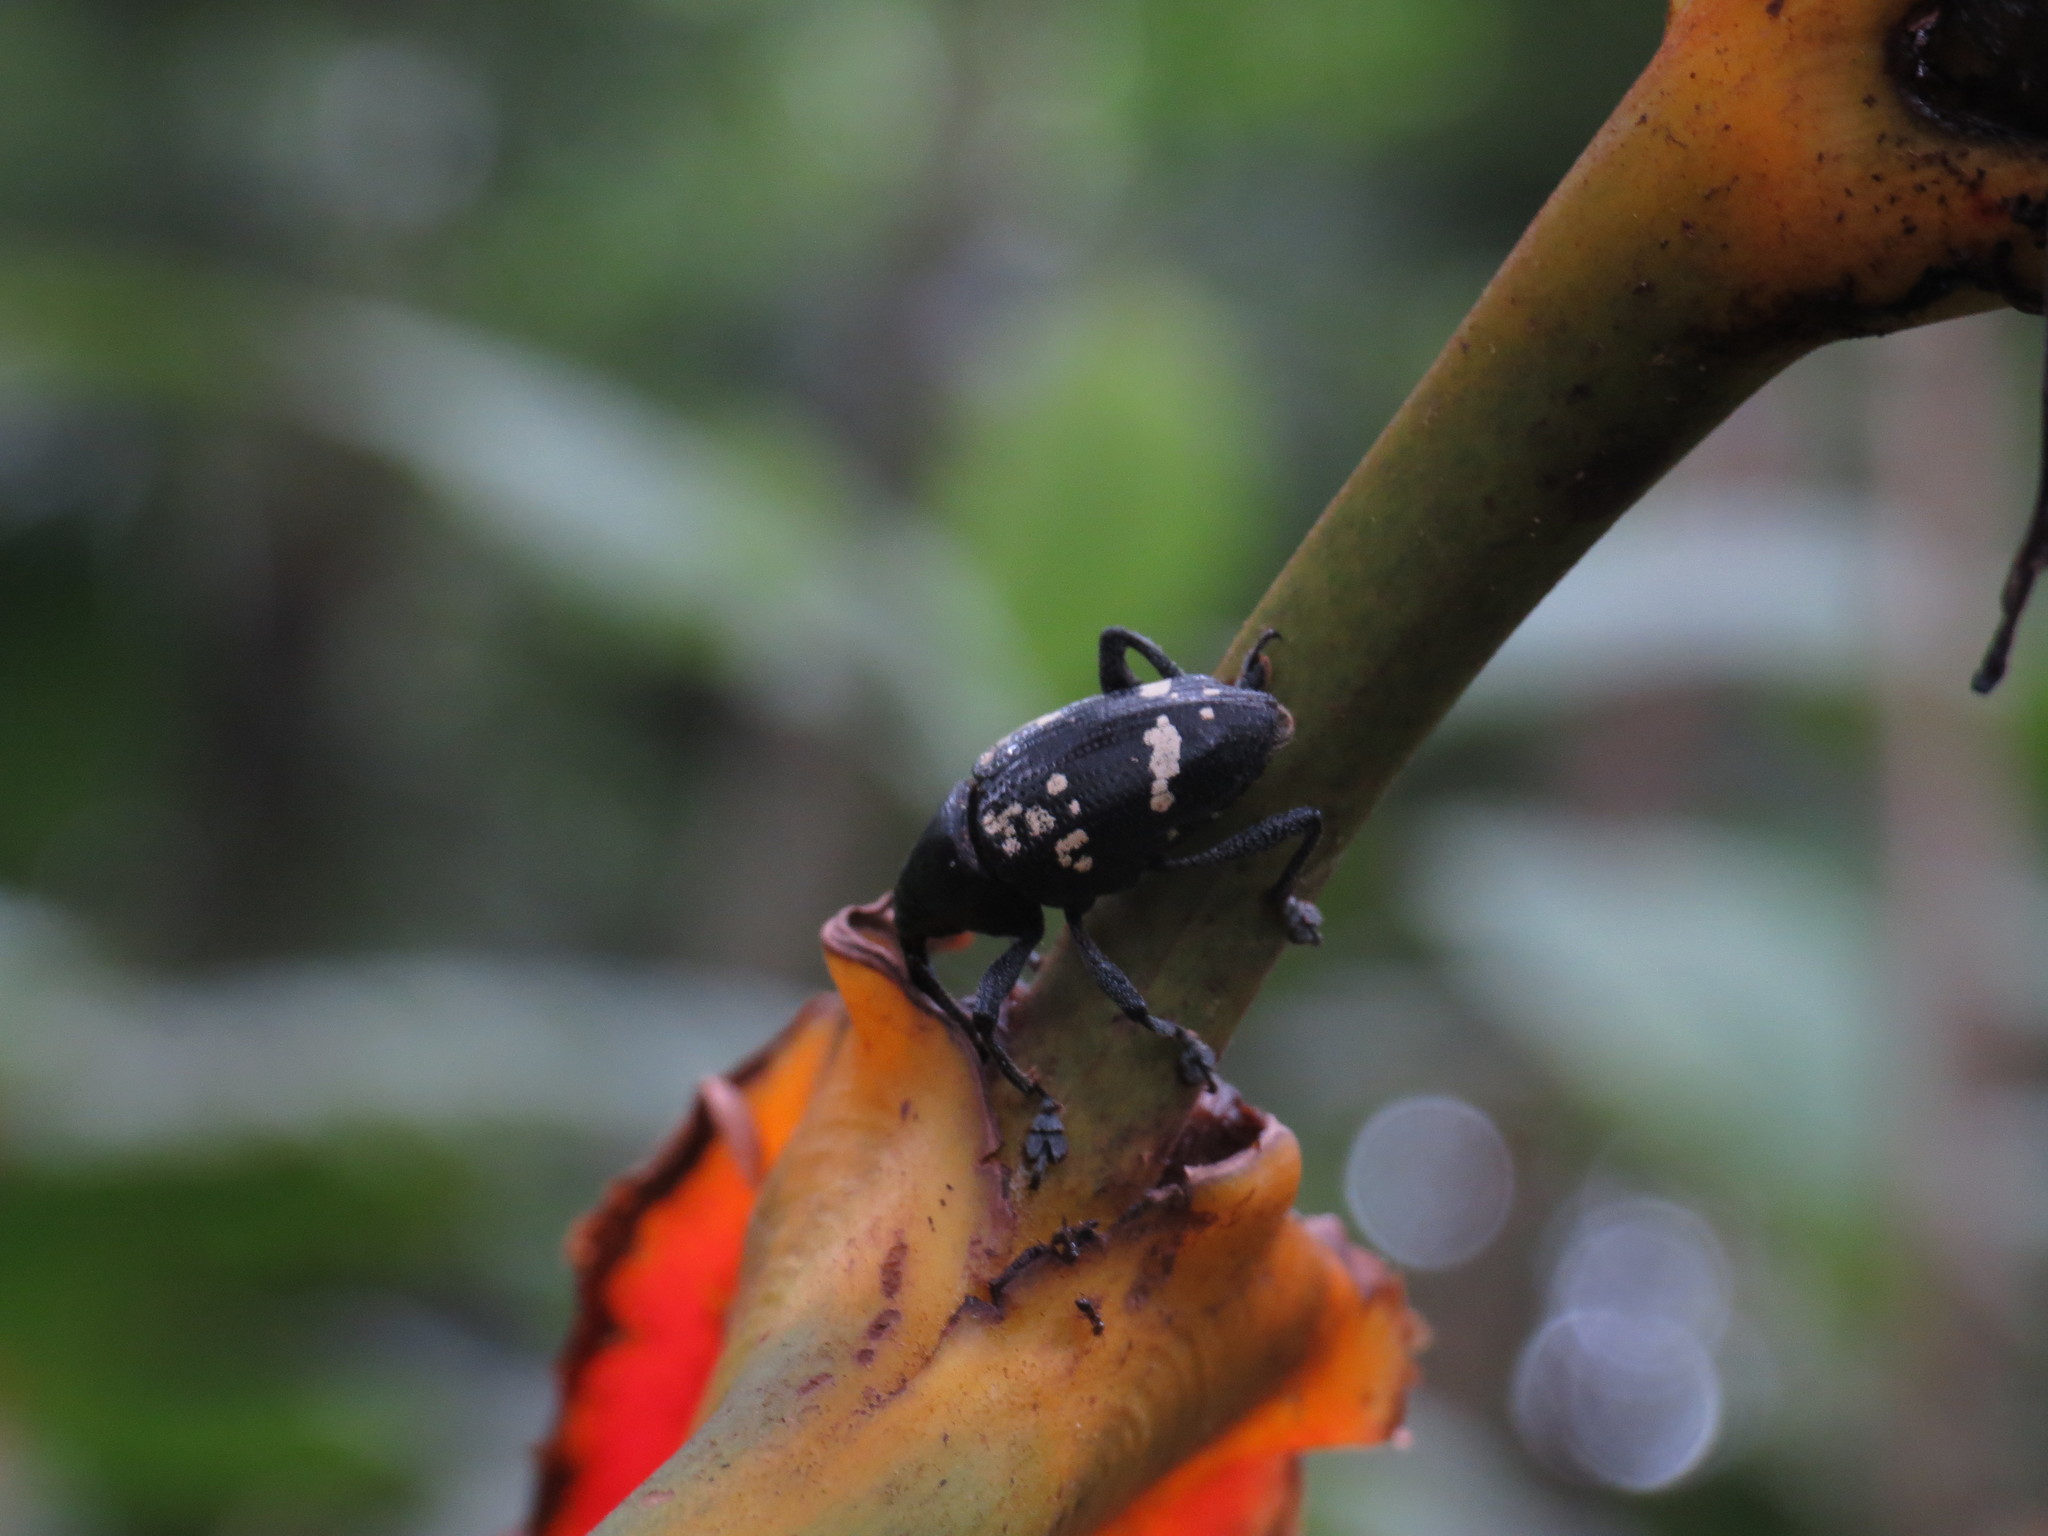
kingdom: Animalia
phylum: Arthropoda
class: Insecta
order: Coleoptera
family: Curculionidae
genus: Cholus
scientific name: Cholus xanthospilus
